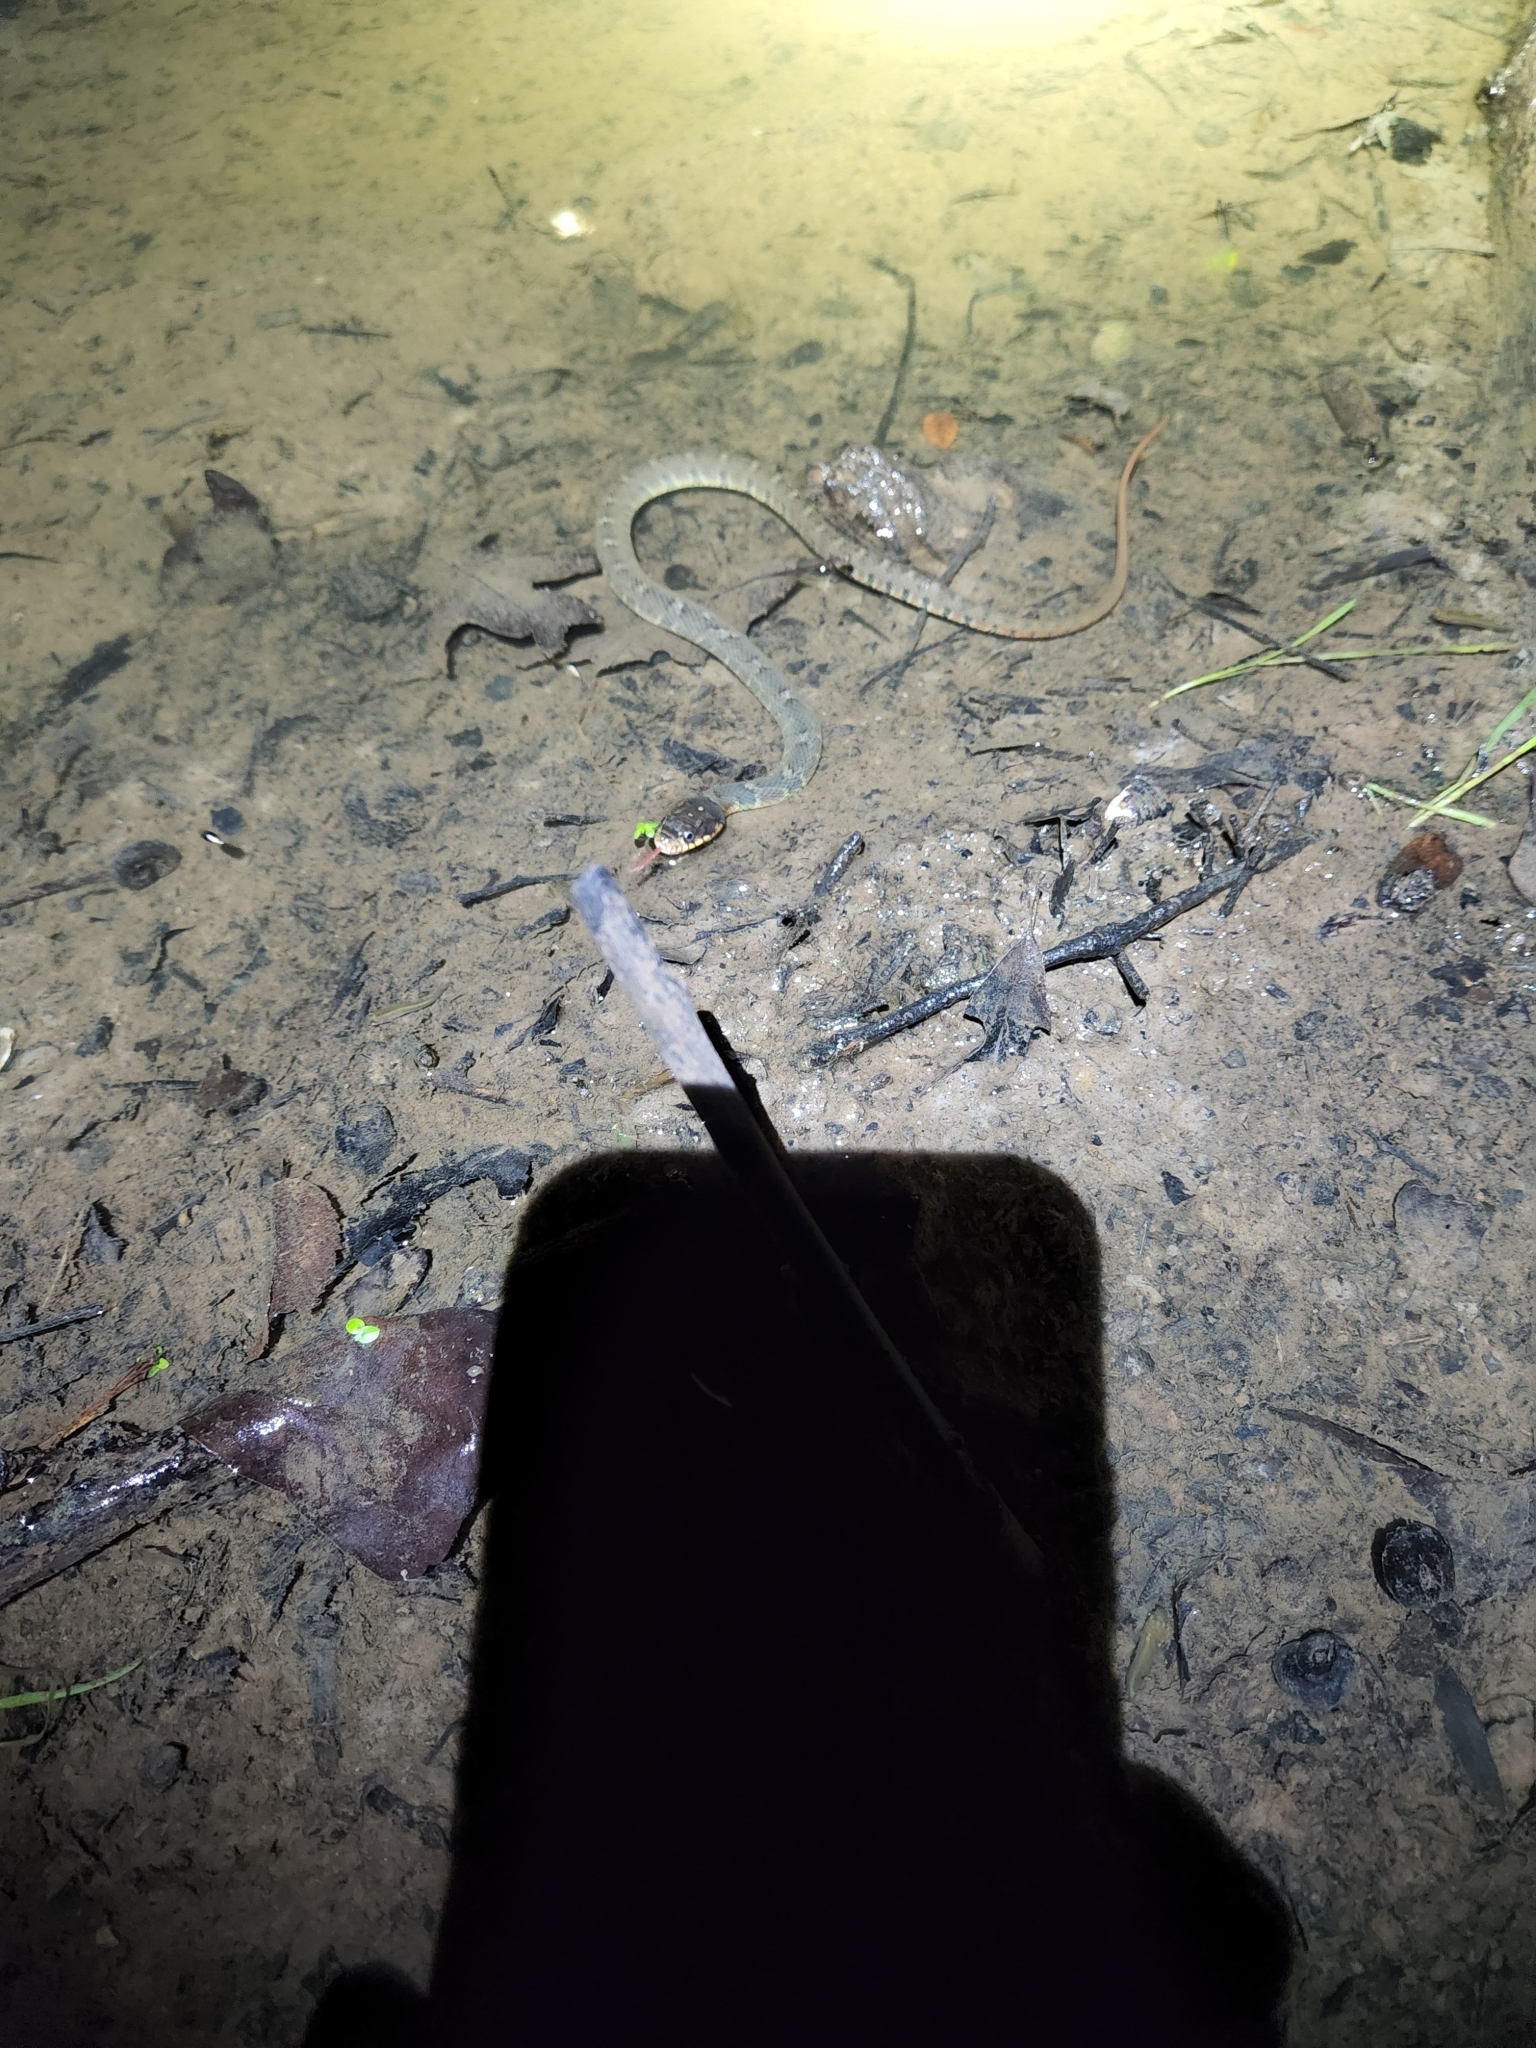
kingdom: Animalia
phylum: Chordata
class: Squamata
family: Colubridae
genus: Nerodia
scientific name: Nerodia erythrogaster
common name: Plainbelly water snake
